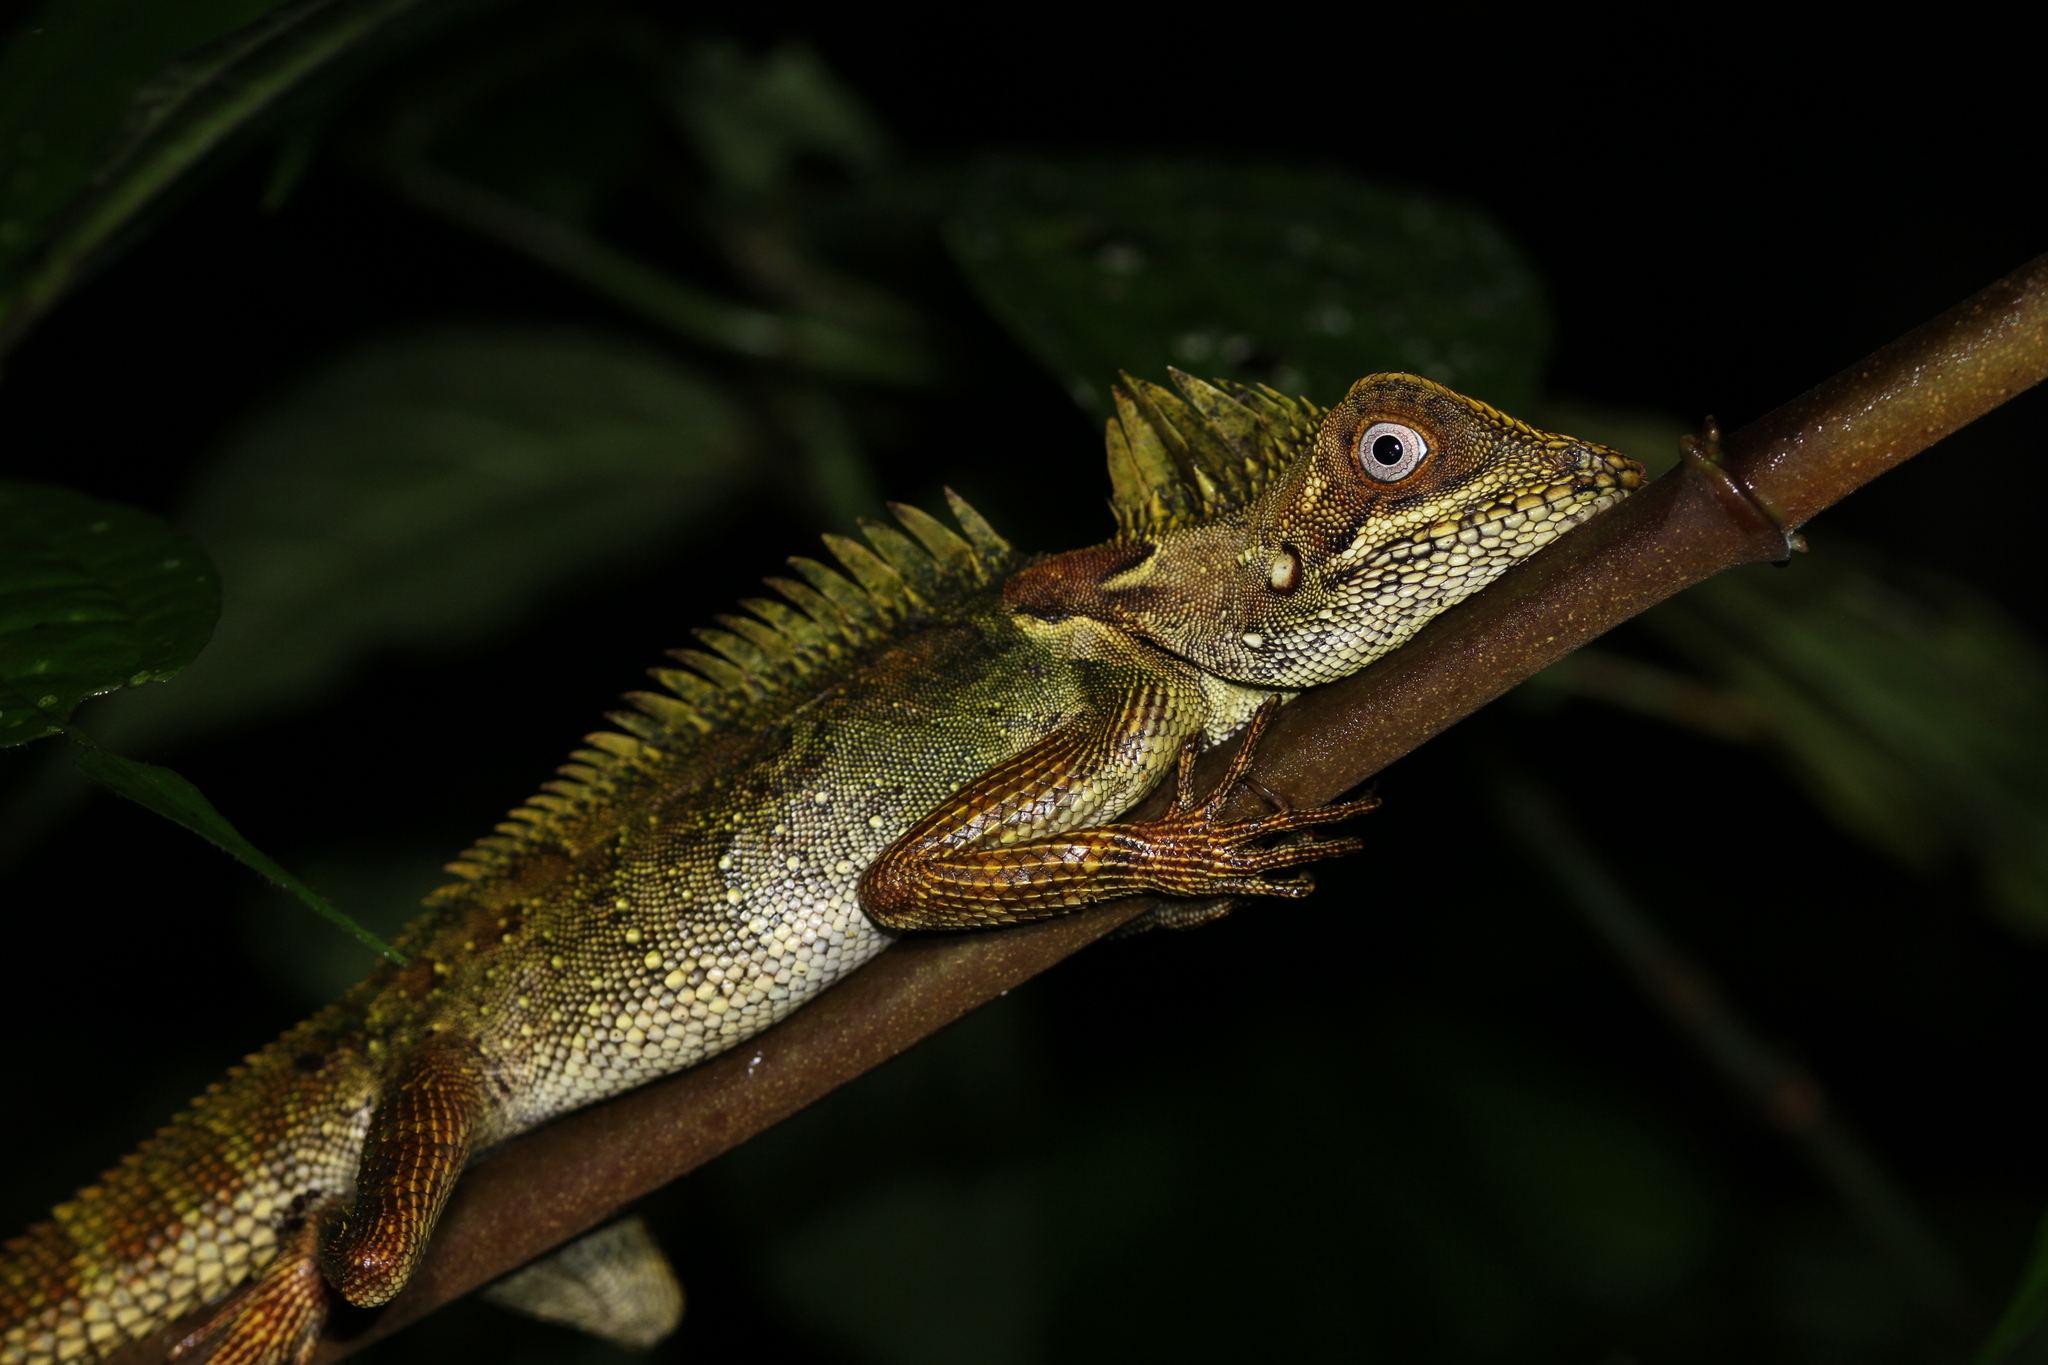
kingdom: Animalia
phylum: Chordata
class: Squamata
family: Agamidae
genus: Gonocephalus
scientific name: Gonocephalus klossi
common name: Kloss' forest dragon
